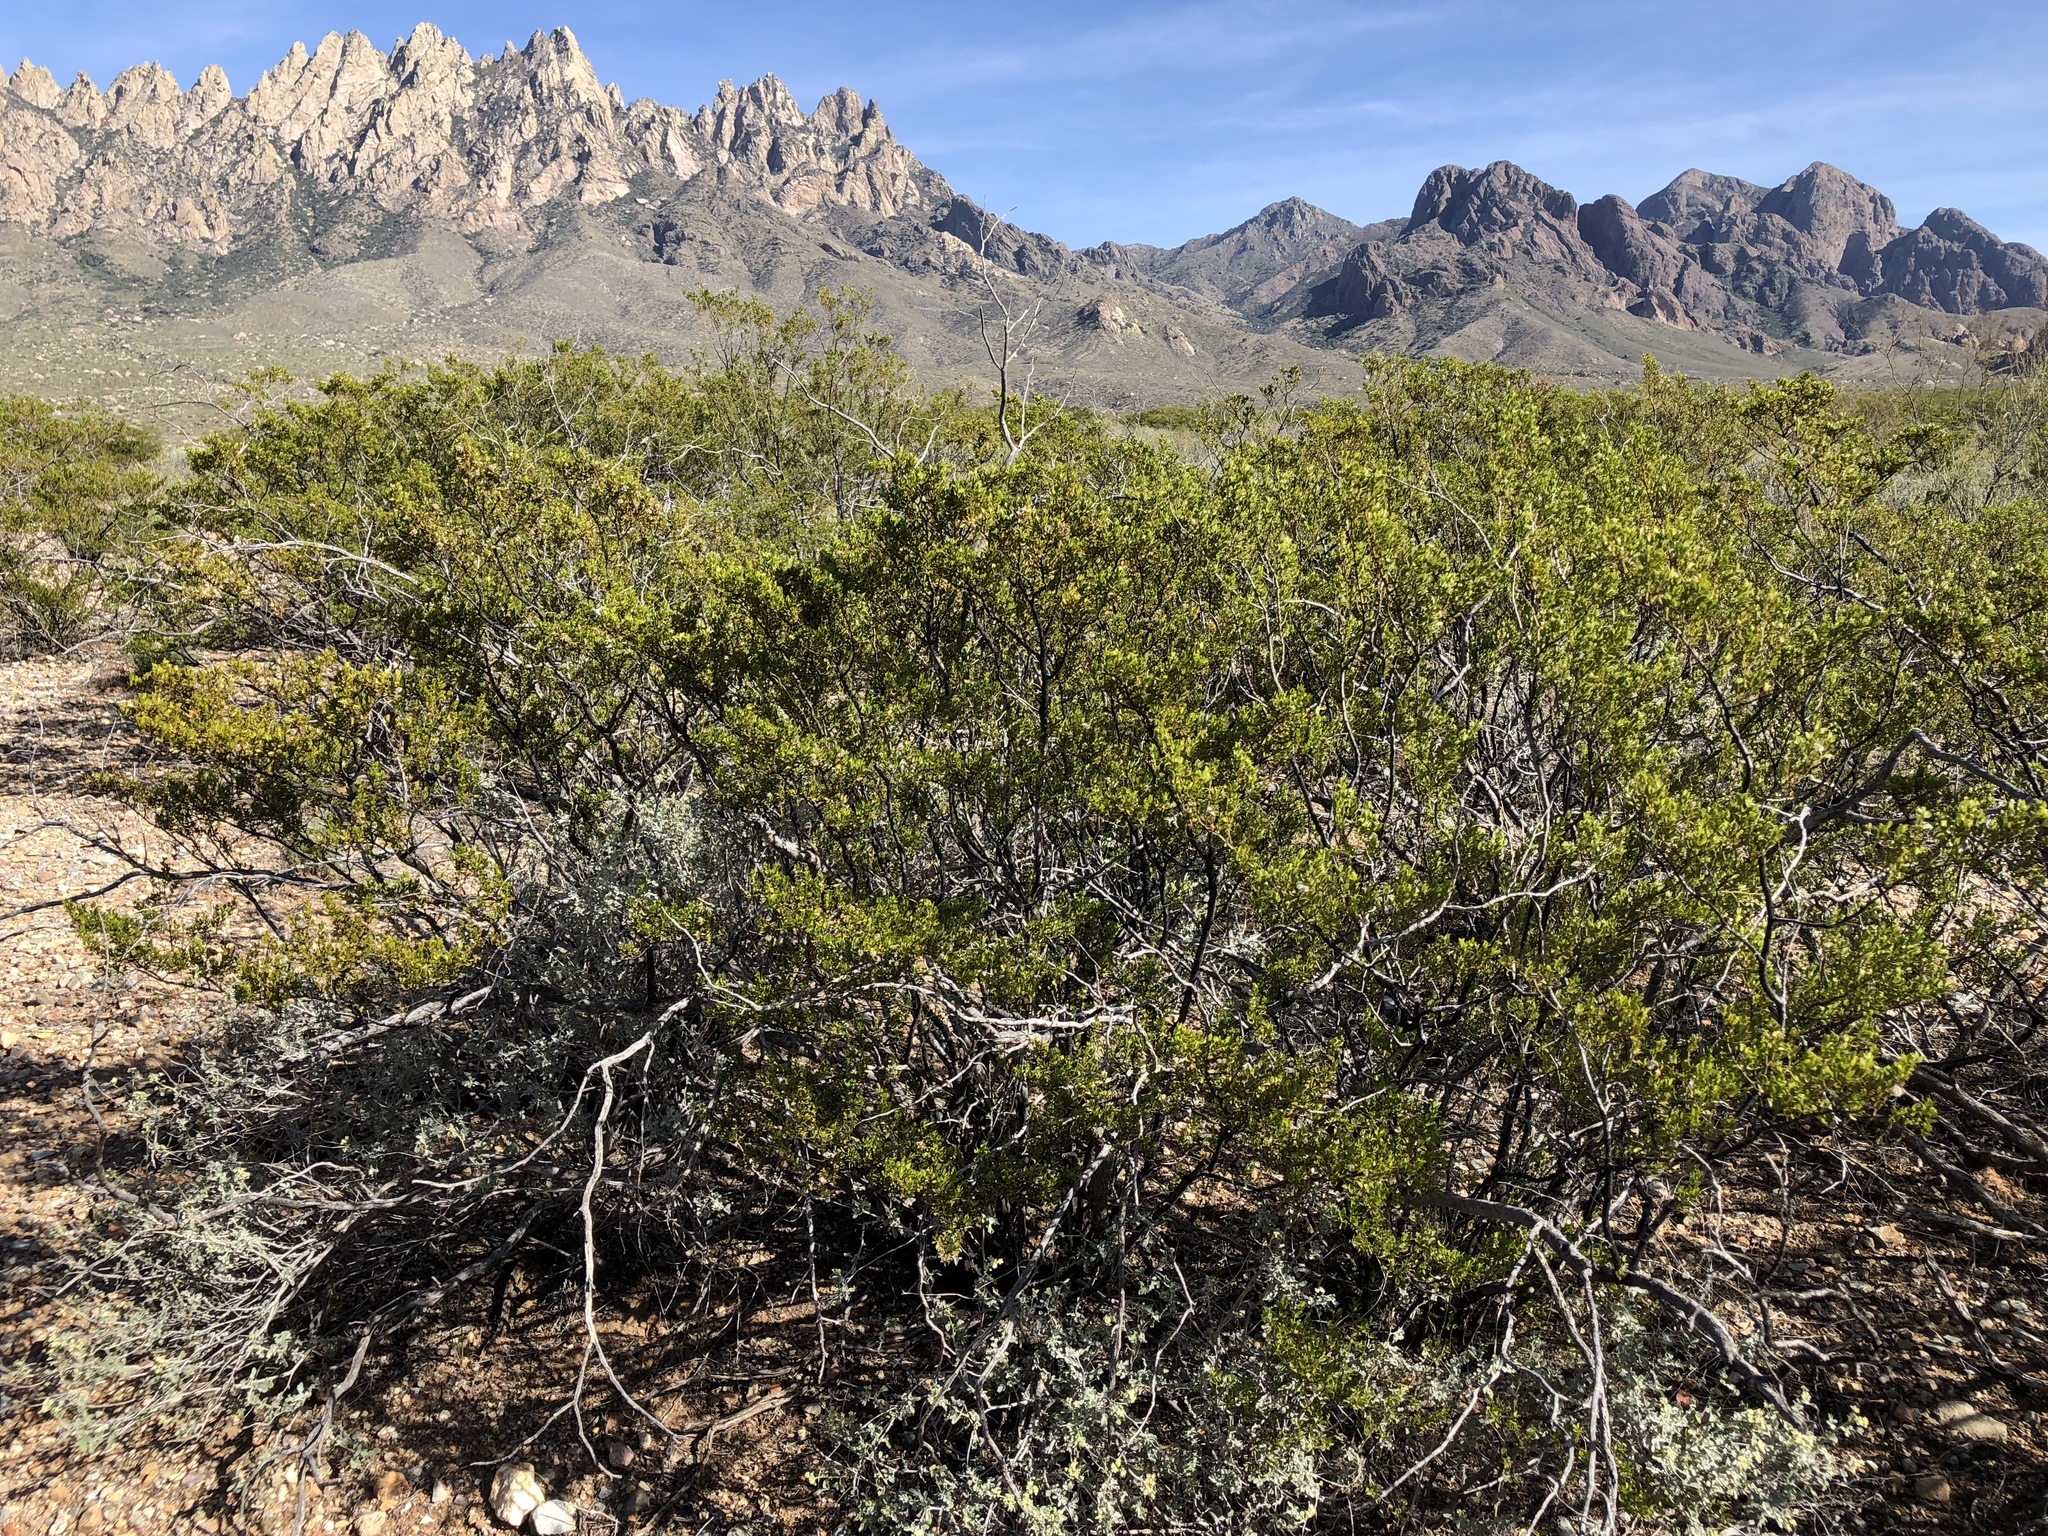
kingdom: Plantae
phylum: Tracheophyta
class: Magnoliopsida
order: Zygophyllales
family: Zygophyllaceae
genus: Larrea
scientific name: Larrea tridentata
